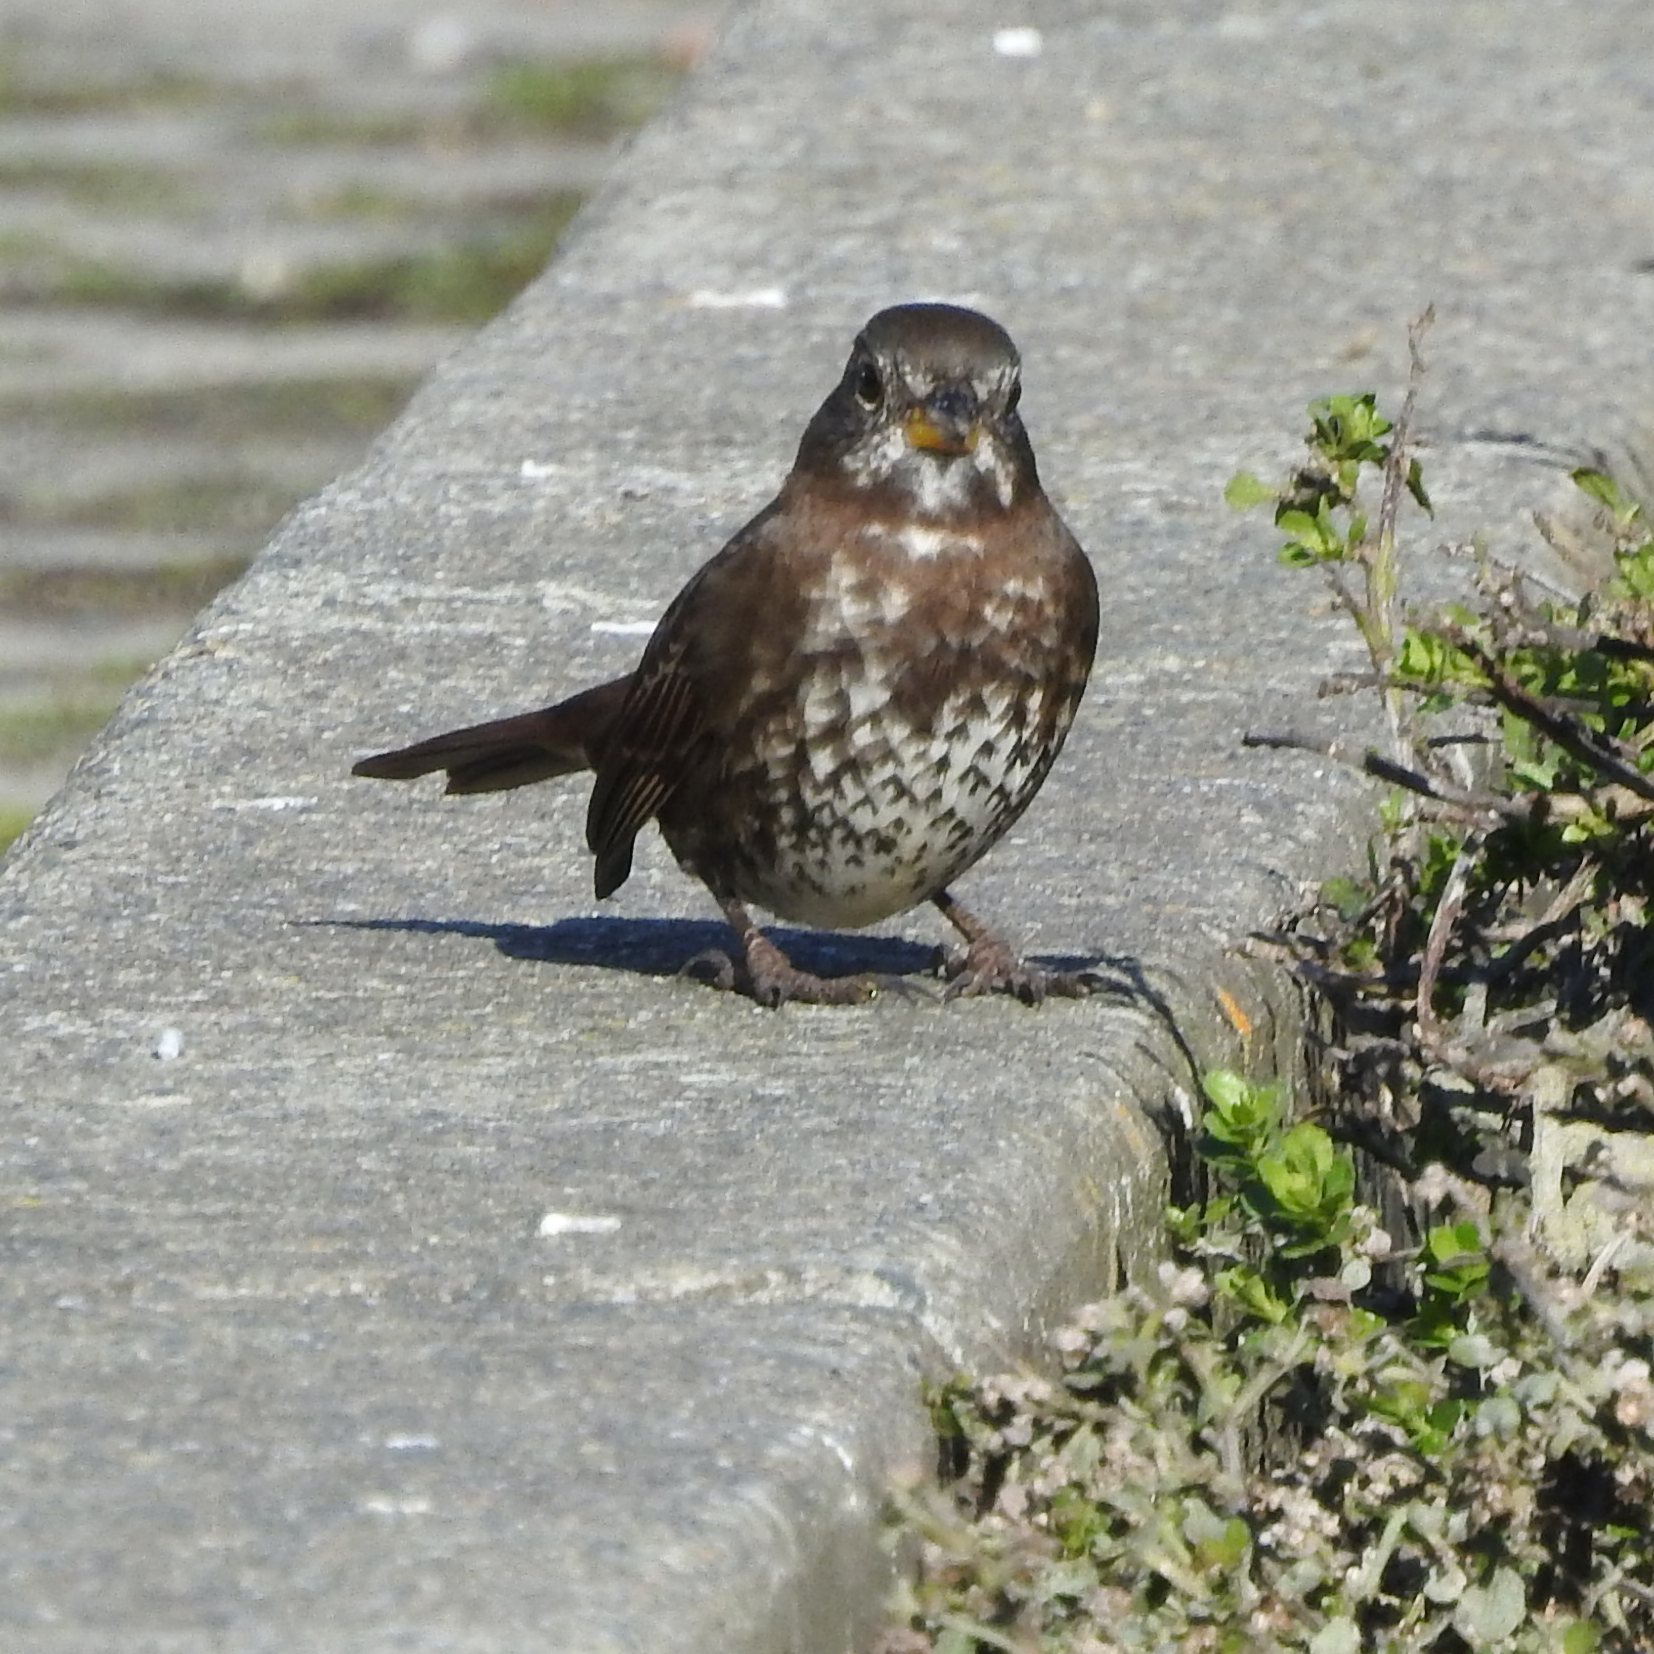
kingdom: Animalia
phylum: Chordata
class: Aves
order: Passeriformes
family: Passerellidae
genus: Passerella
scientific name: Passerella iliaca
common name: Fox sparrow
